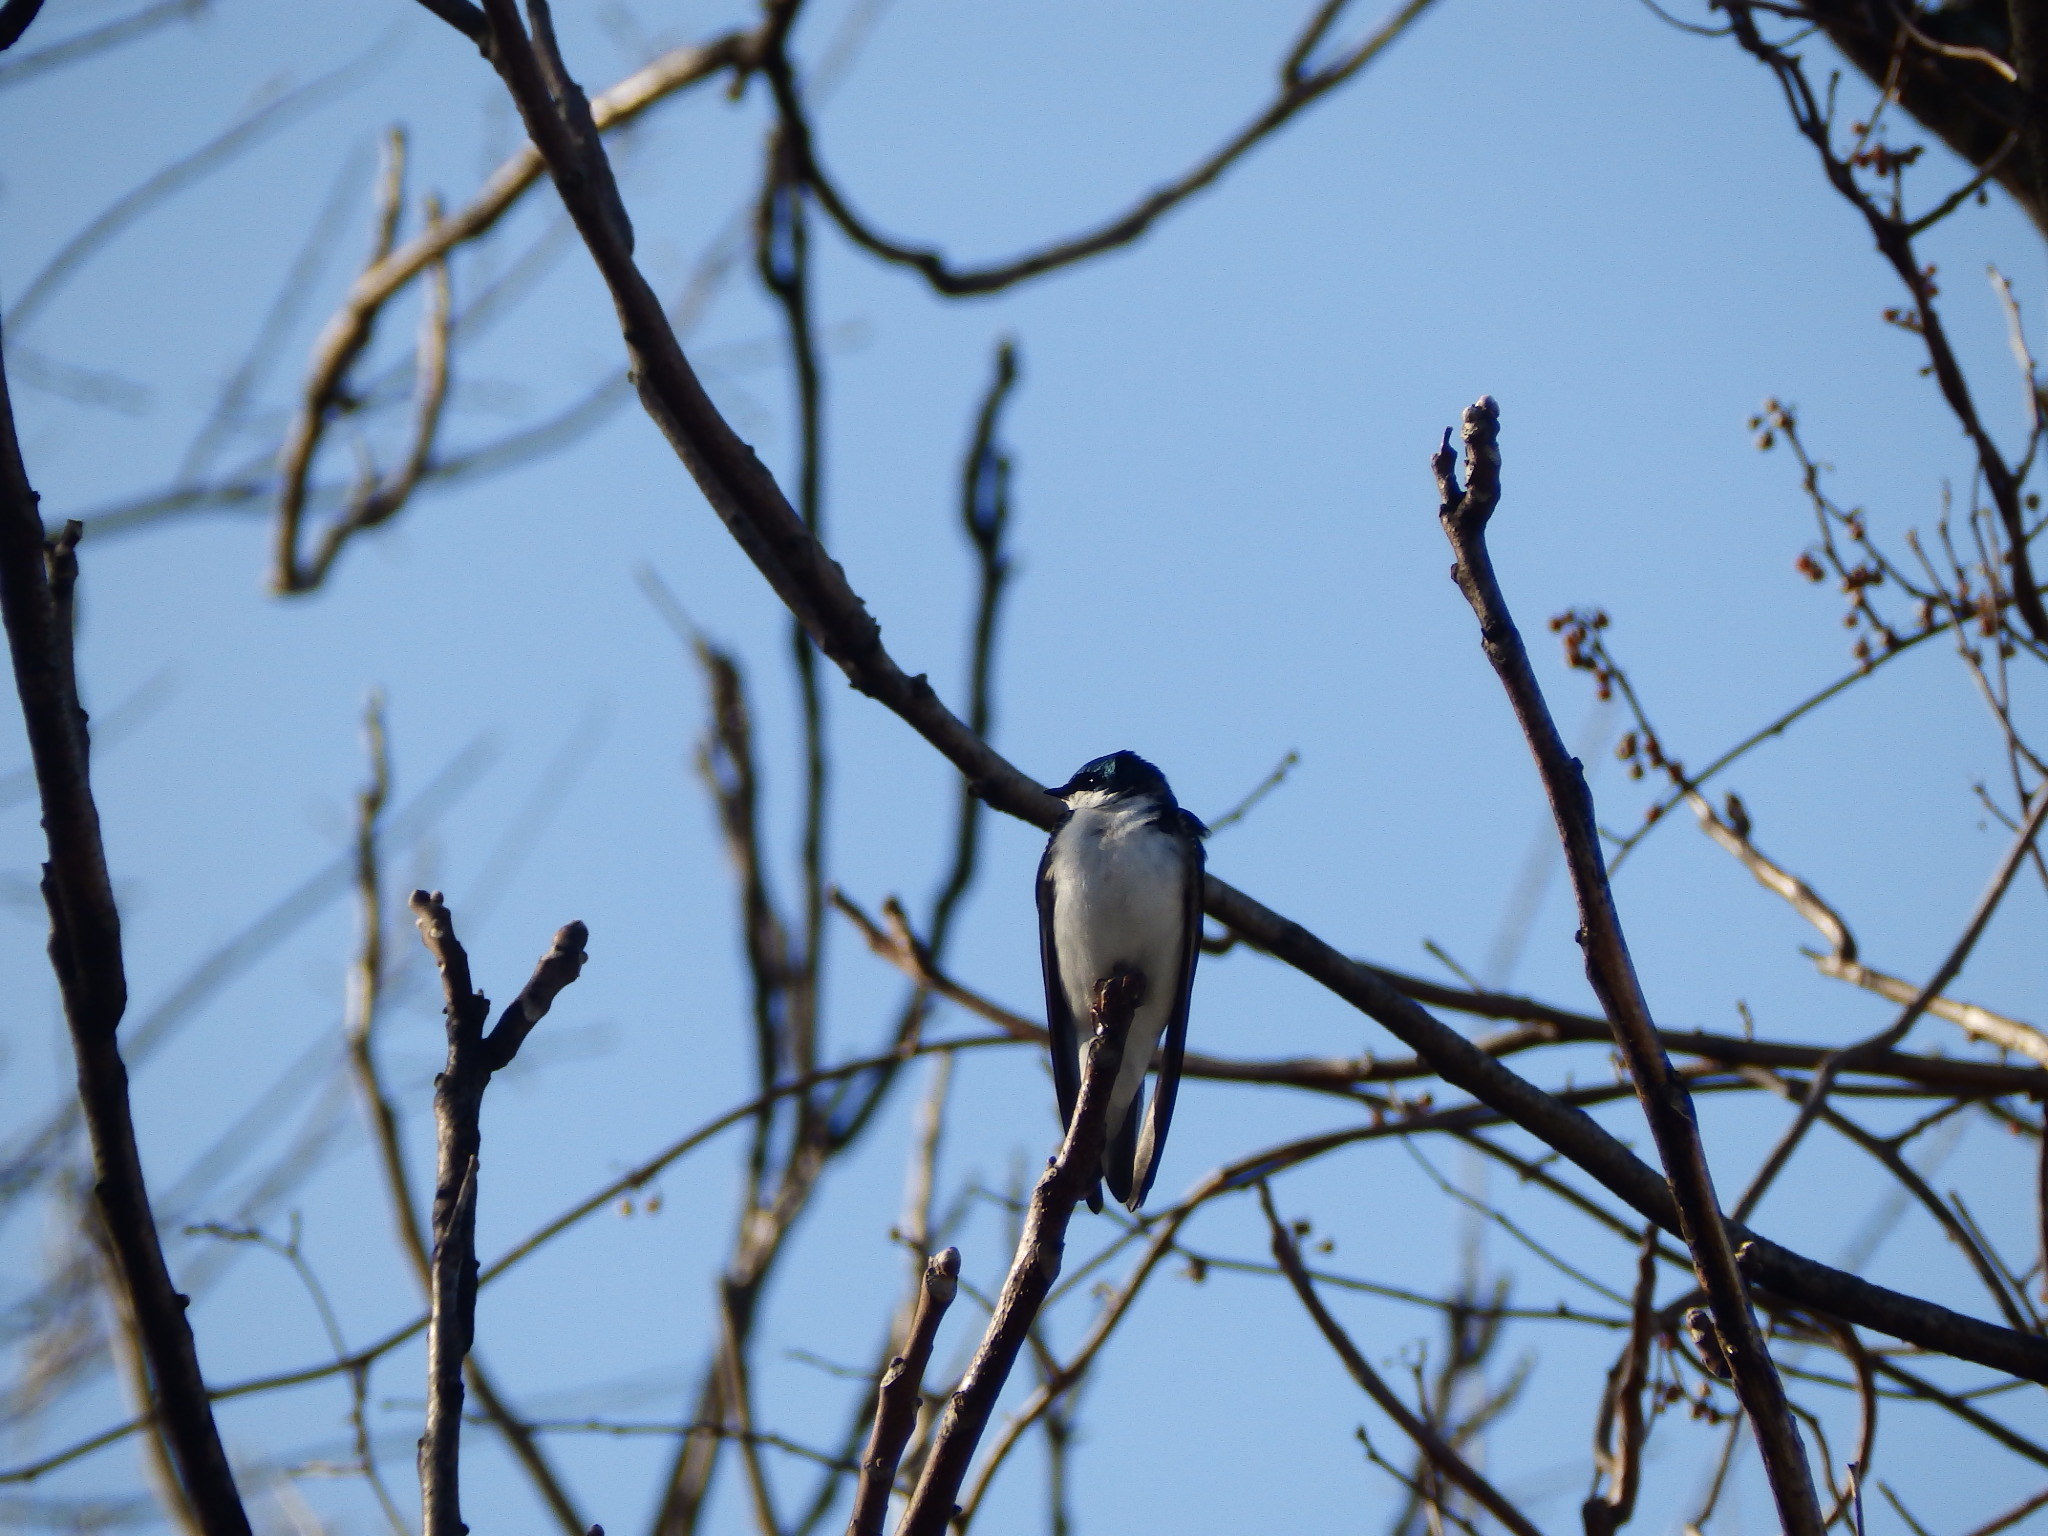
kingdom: Animalia
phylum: Chordata
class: Aves
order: Passeriformes
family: Hirundinidae
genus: Tachycineta
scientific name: Tachycineta bicolor
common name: Tree swallow
